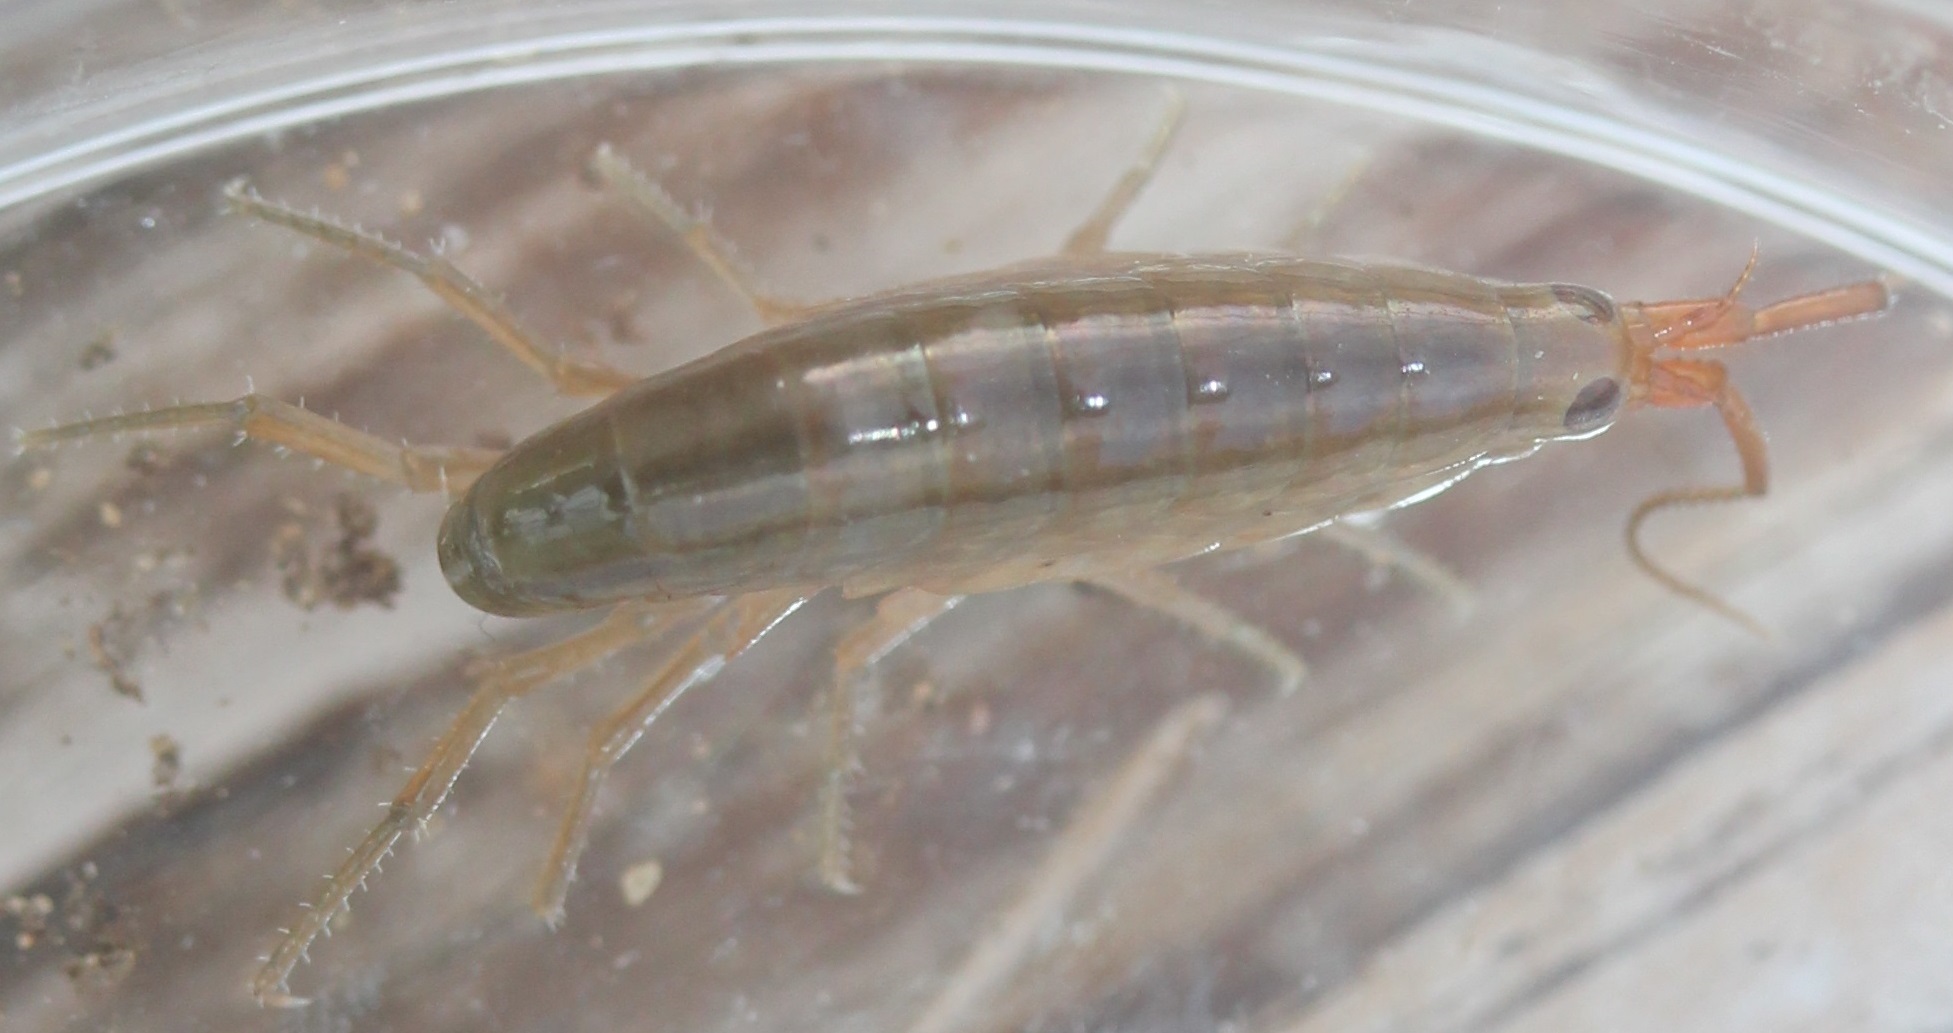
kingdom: Animalia
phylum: Arthropoda
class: Malacostraca
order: Amphipoda
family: Talitridae
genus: Speziorchestia
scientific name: Speziorchestia grillus
